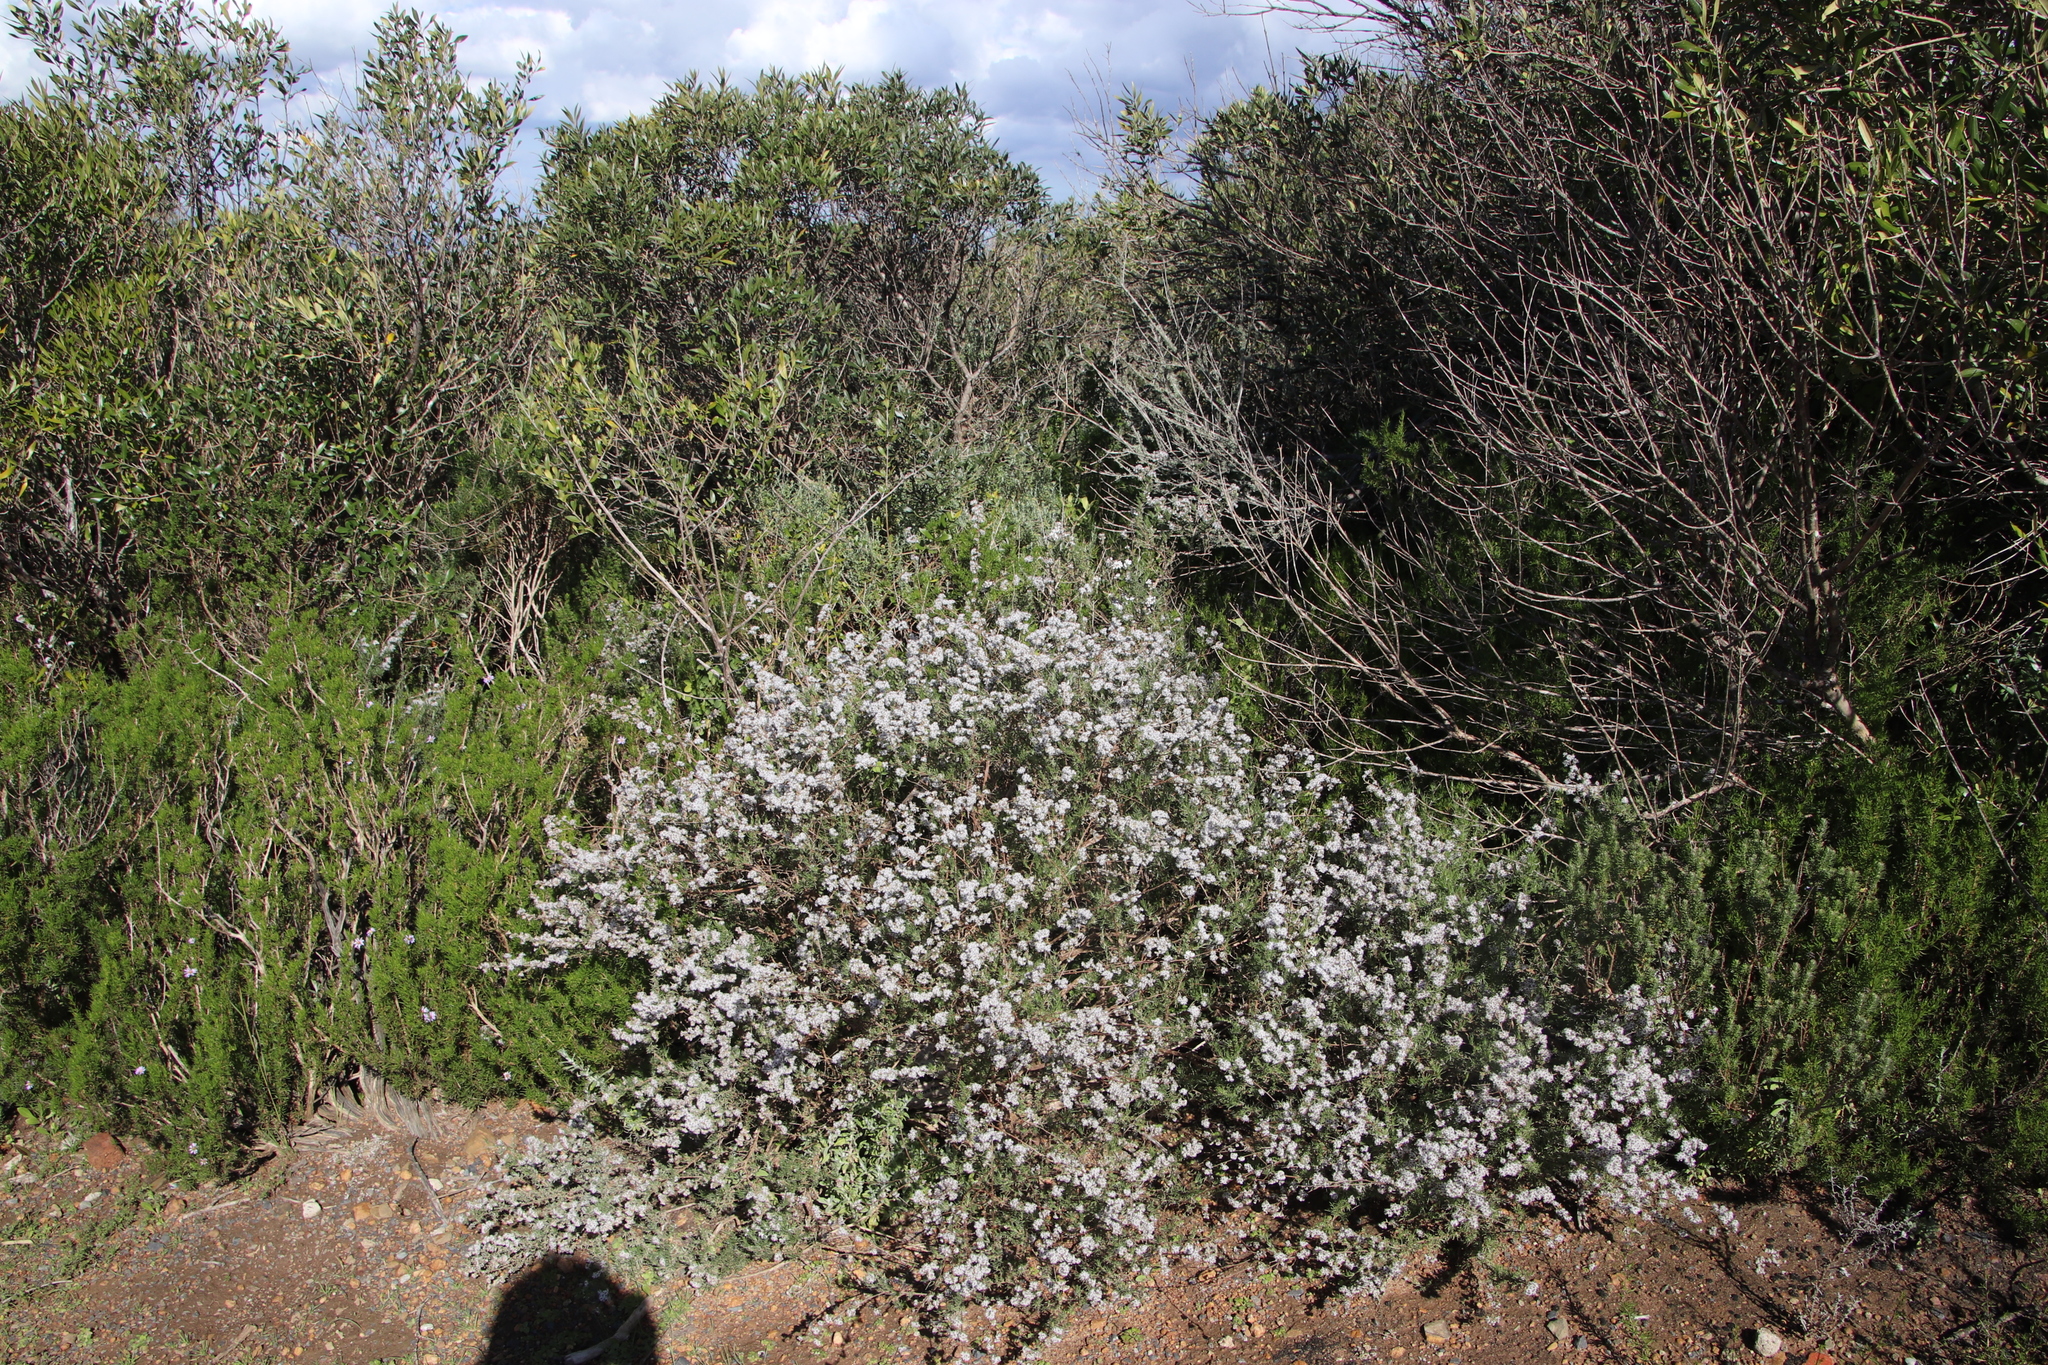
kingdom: Plantae
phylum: Tracheophyta
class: Magnoliopsida
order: Asterales
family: Asteraceae
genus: Eriocephalus
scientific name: Eriocephalus africanus
